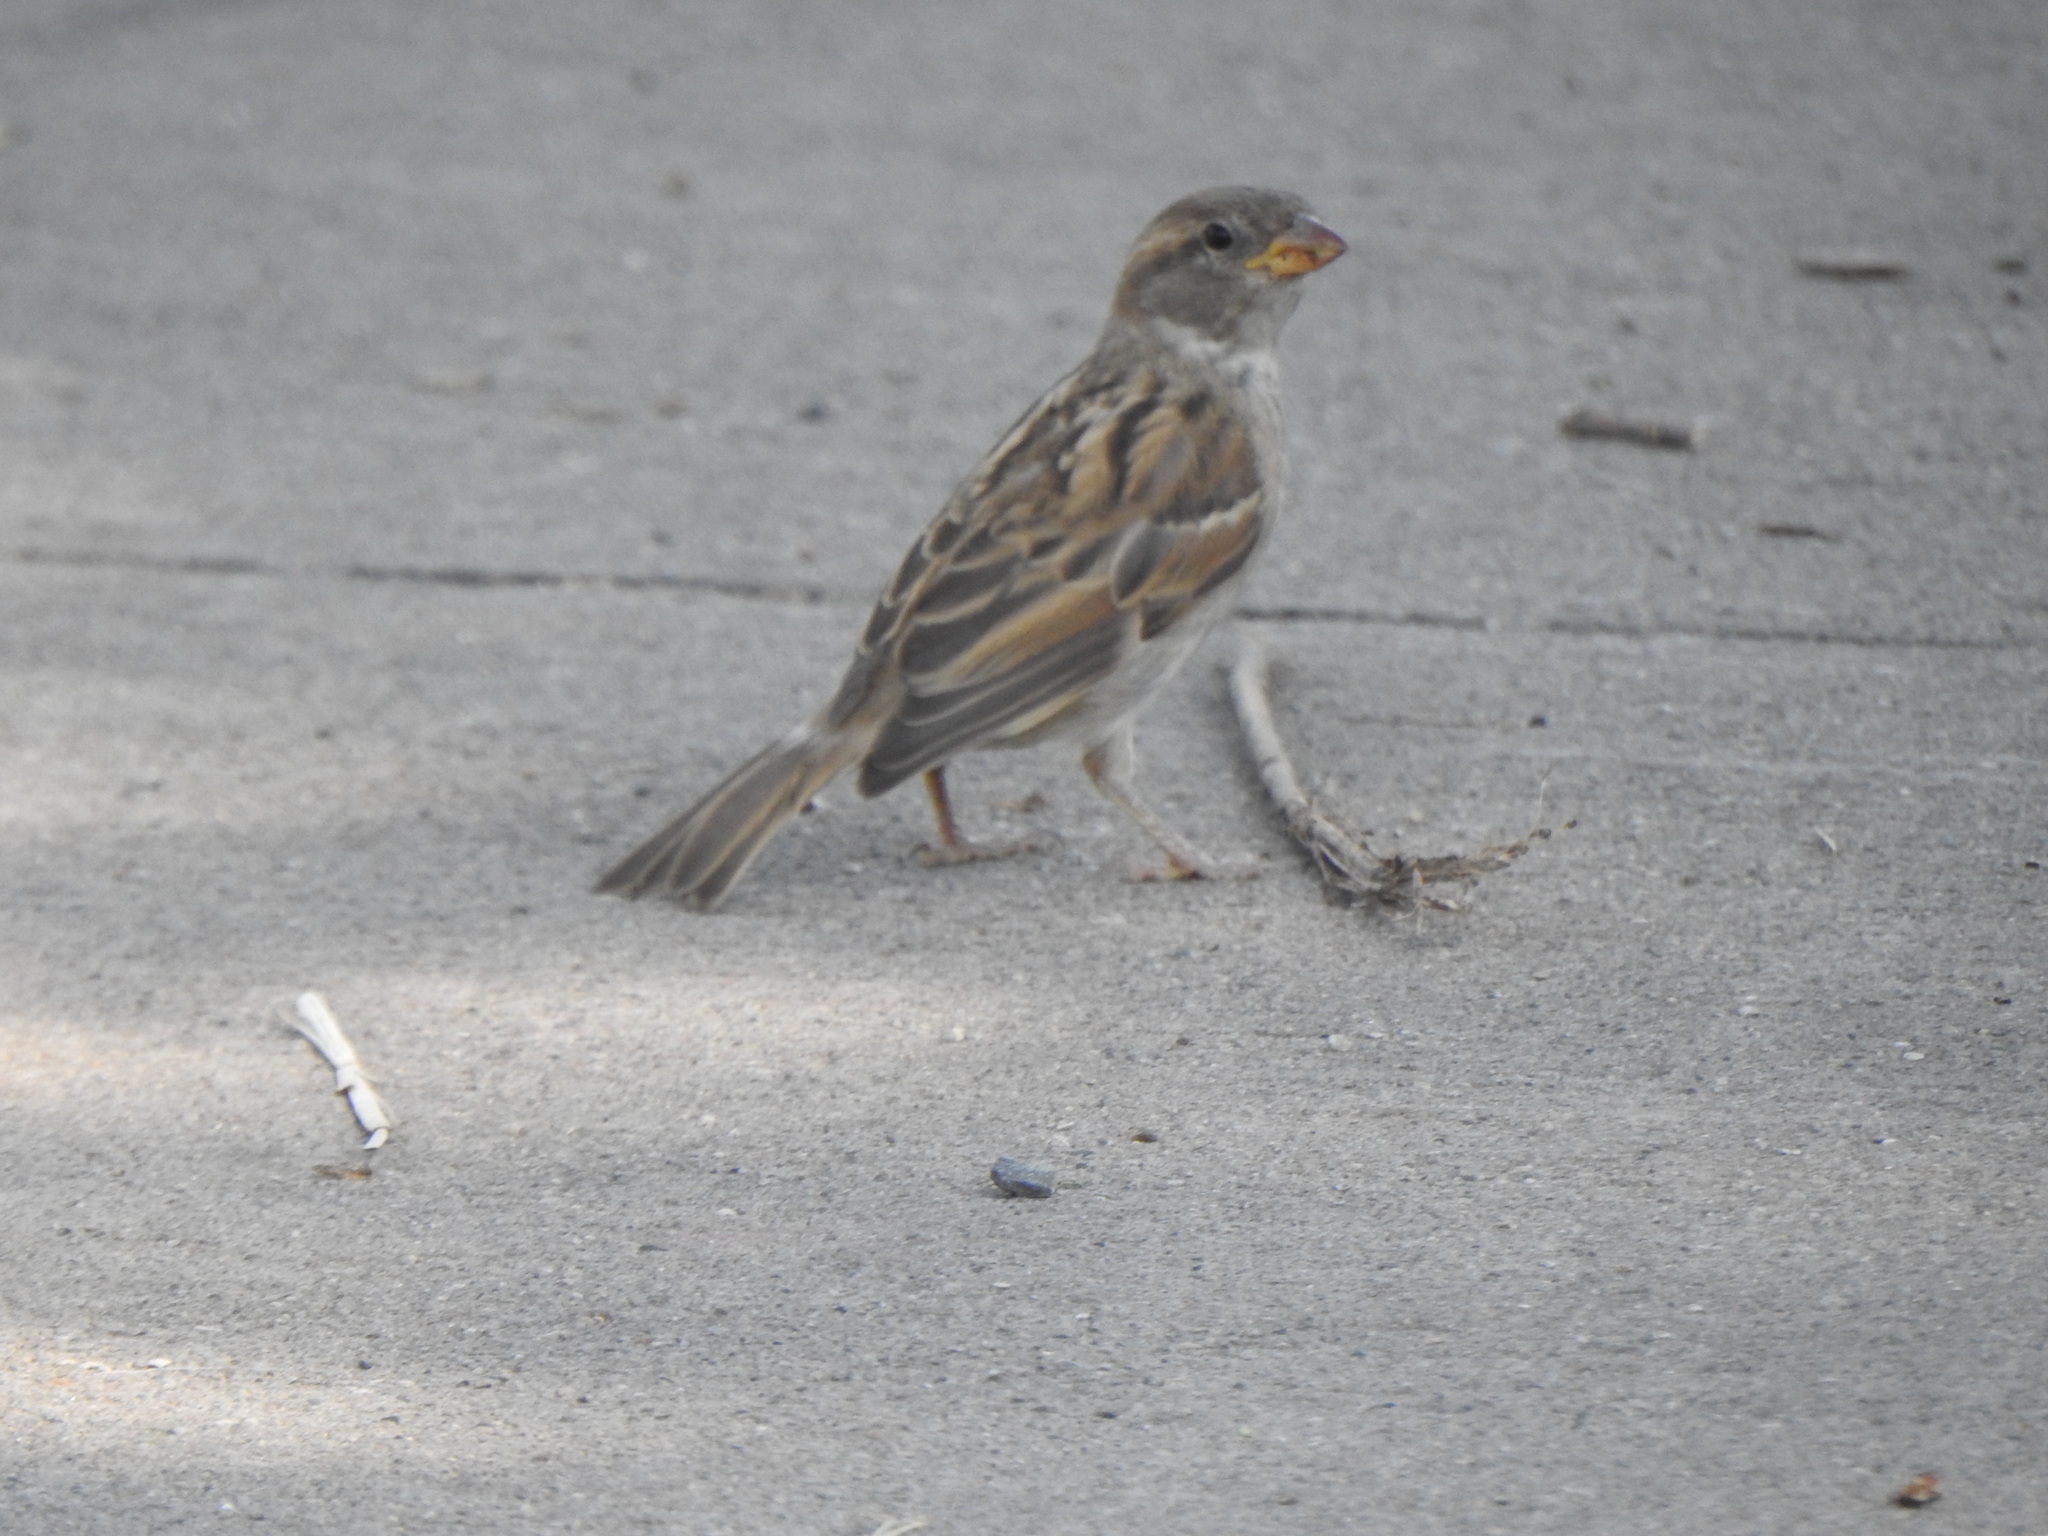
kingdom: Animalia
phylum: Chordata
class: Aves
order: Passeriformes
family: Passeridae
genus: Passer
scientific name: Passer domesticus
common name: House sparrow
